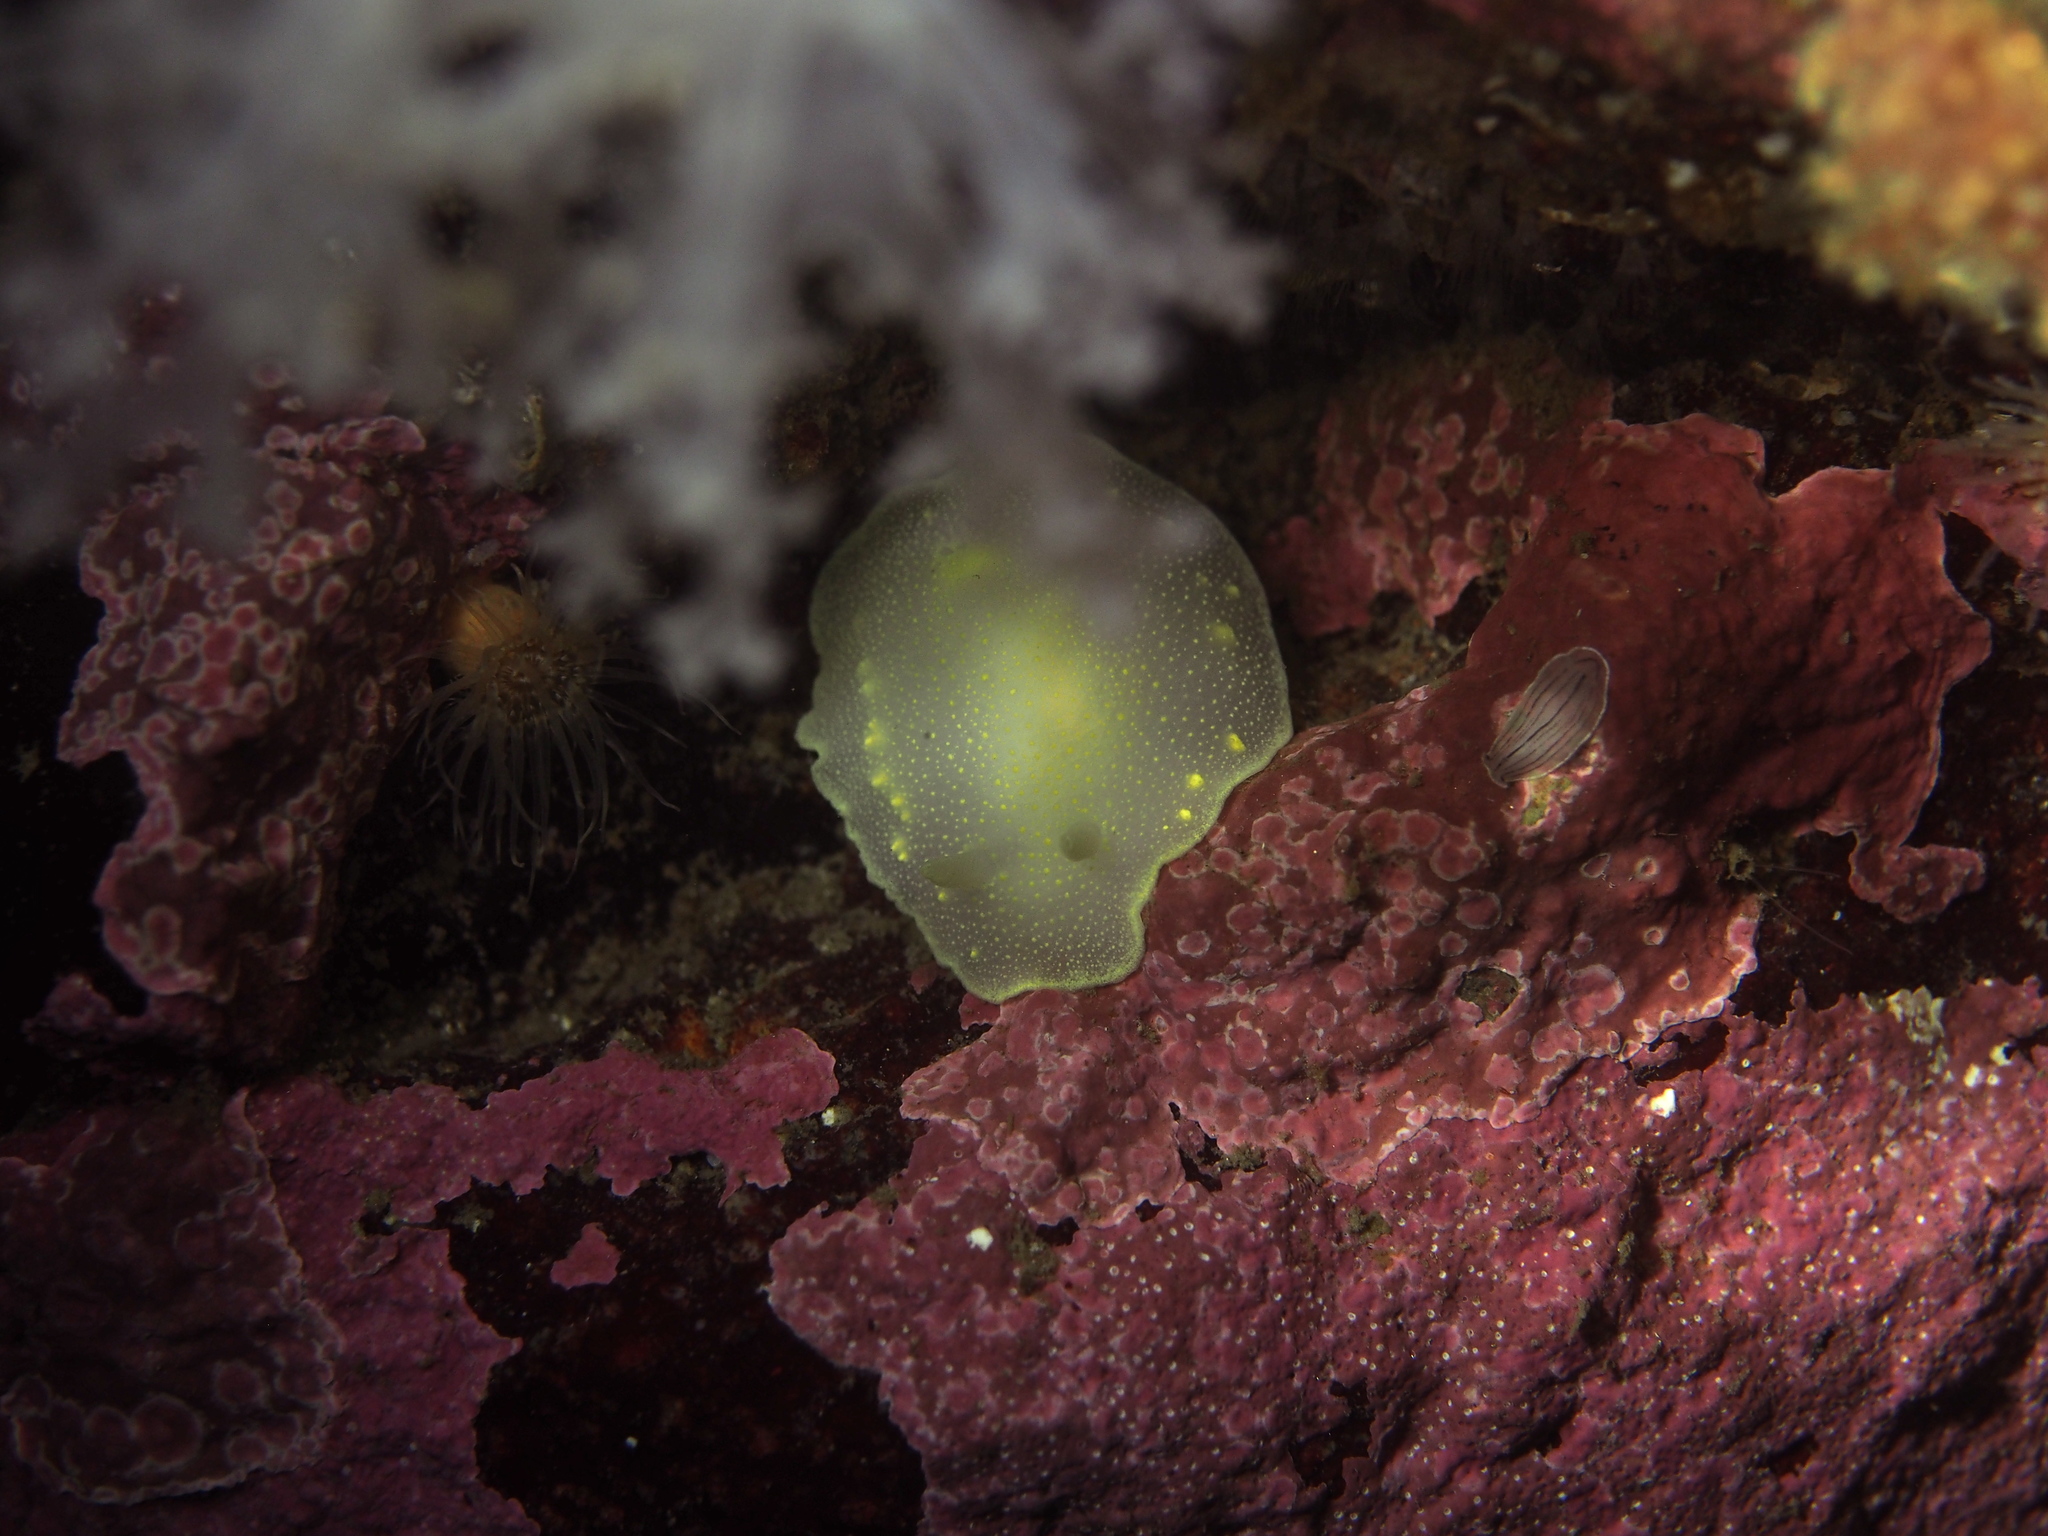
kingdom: Animalia
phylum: Mollusca
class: Gastropoda
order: Nudibranchia
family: Cadlinidae
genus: Cadlina
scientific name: Cadlina laevis
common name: White atlantic cadlina
